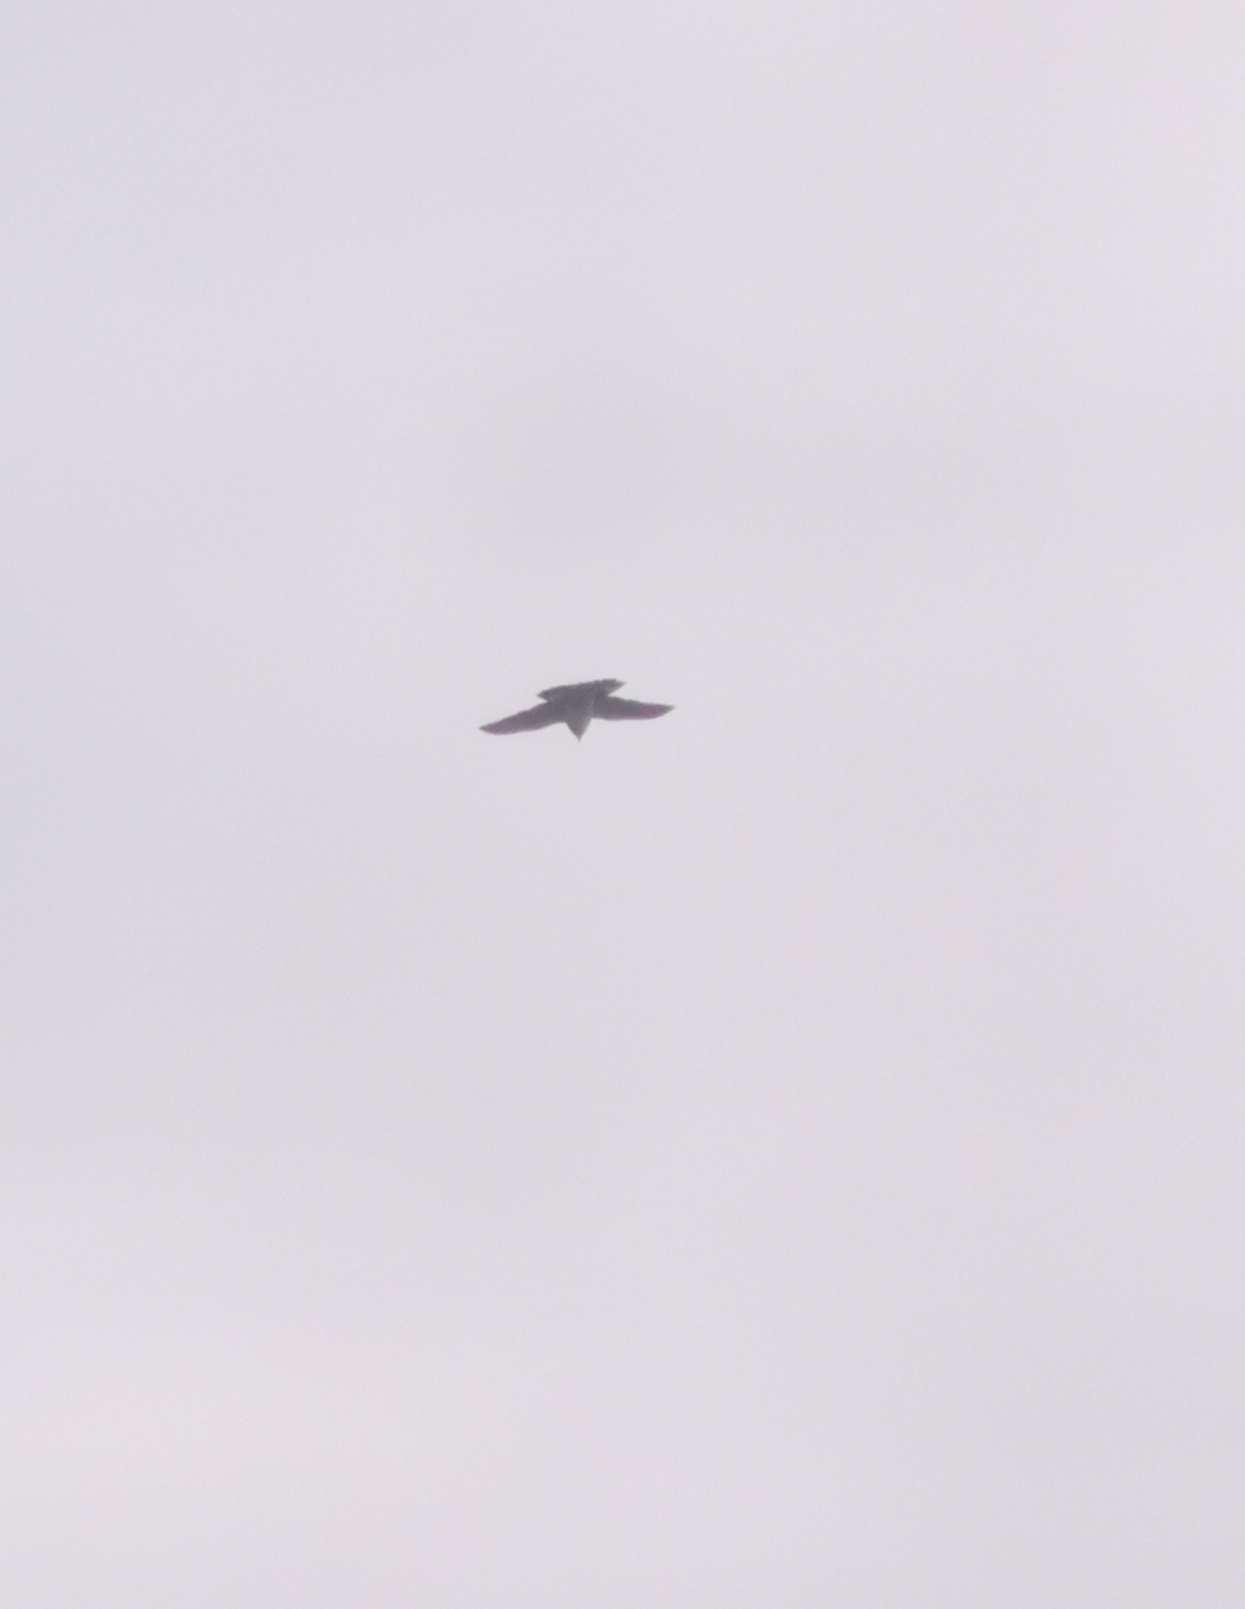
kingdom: Animalia
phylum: Chordata
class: Aves
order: Columbiformes
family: Columbidae
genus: Columba
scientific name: Columba palumbus
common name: Common wood pigeon
